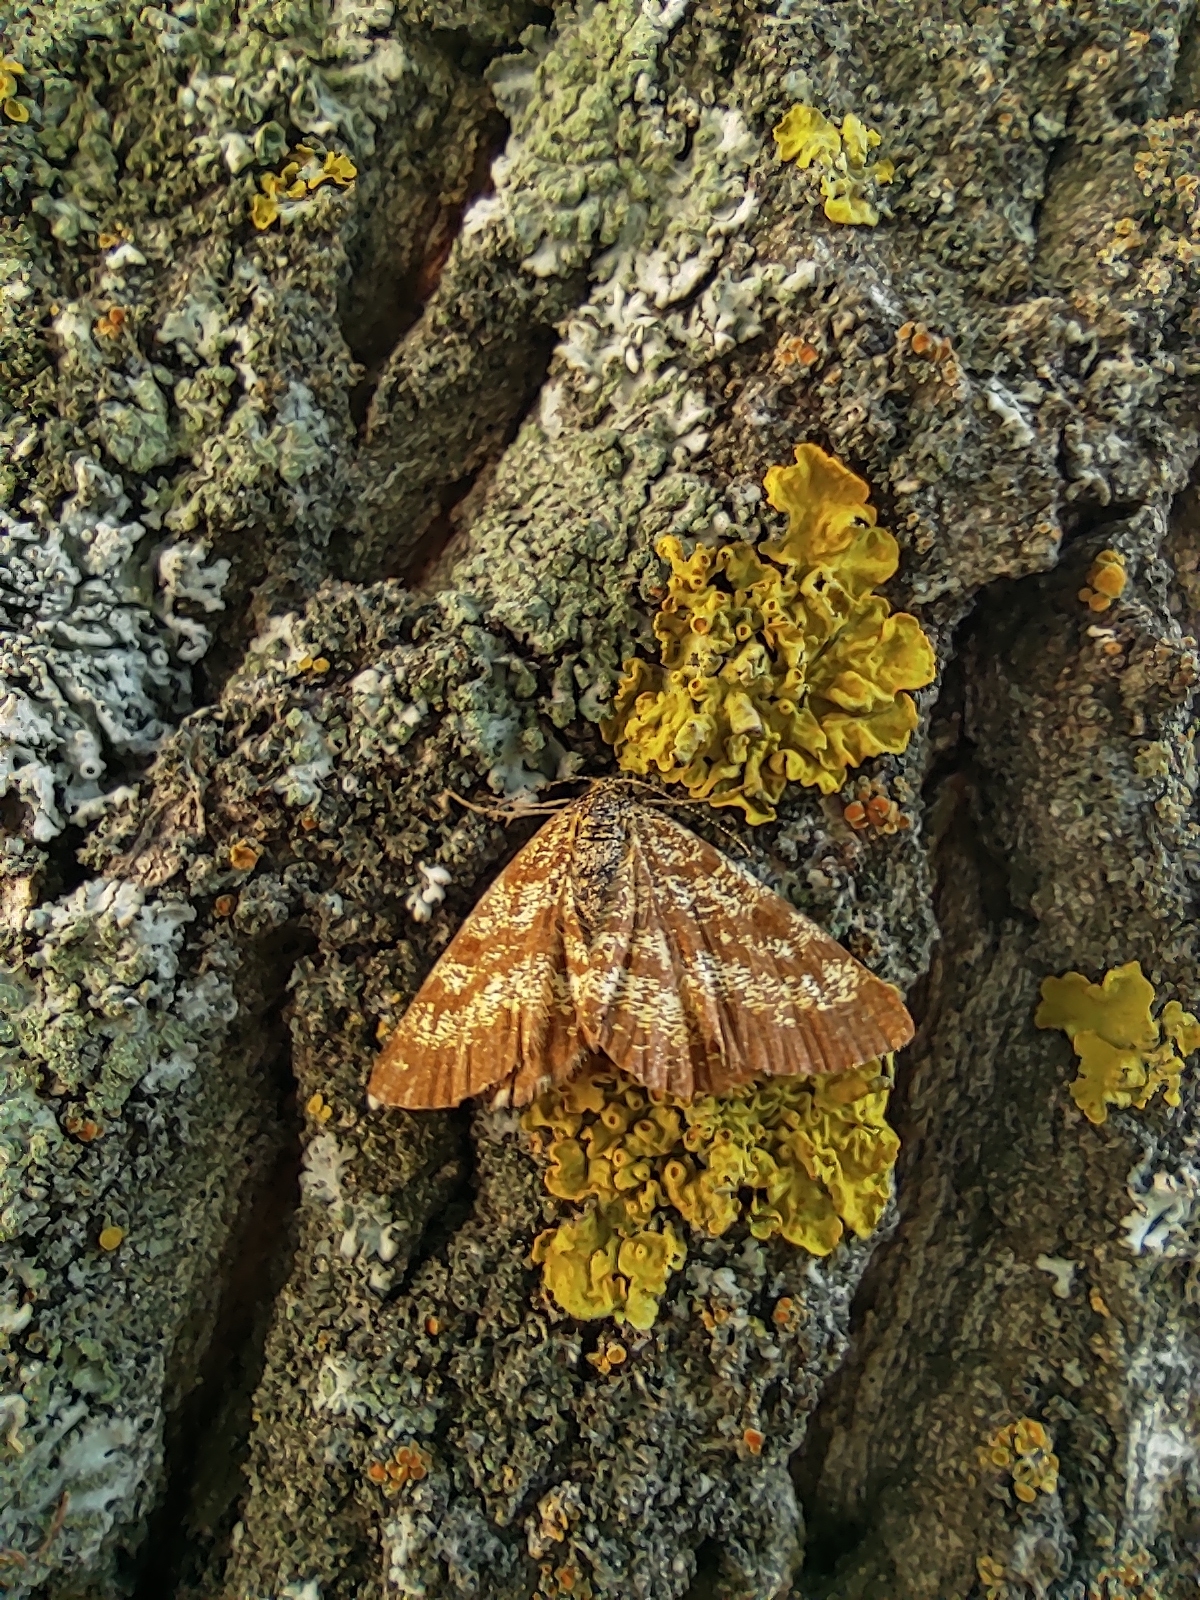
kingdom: Animalia
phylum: Arthropoda
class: Insecta
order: Lepidoptera
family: Geometridae
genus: Ematurga
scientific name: Ematurga atomaria
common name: Common heath
